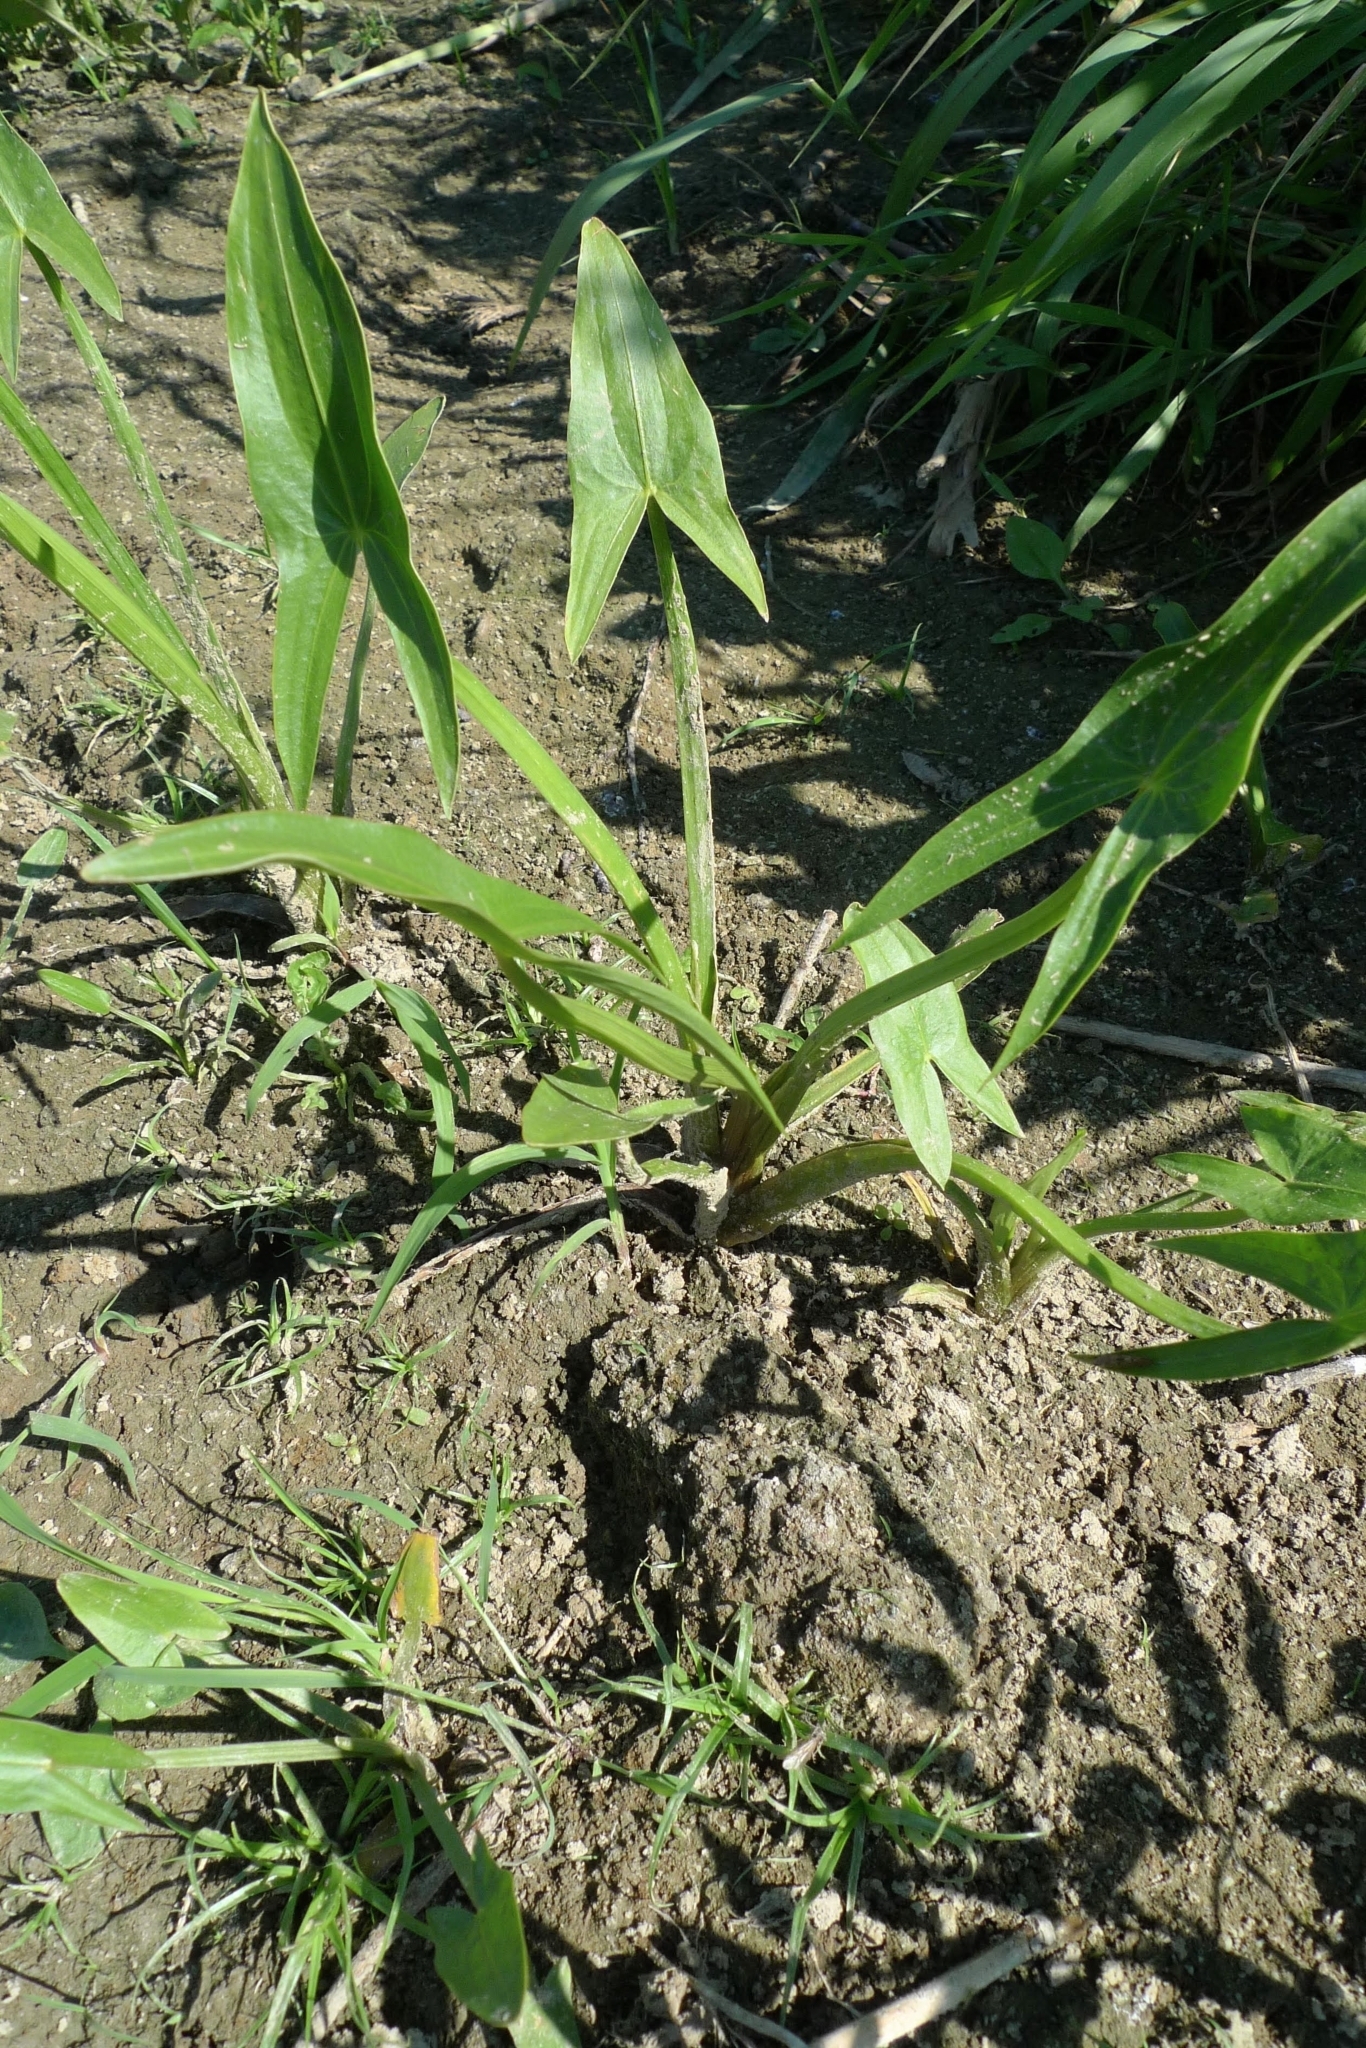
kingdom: Plantae
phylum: Tracheophyta
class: Liliopsida
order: Alismatales
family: Alismataceae
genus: Sagittaria
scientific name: Sagittaria sagittifolia
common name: Arrowhead
